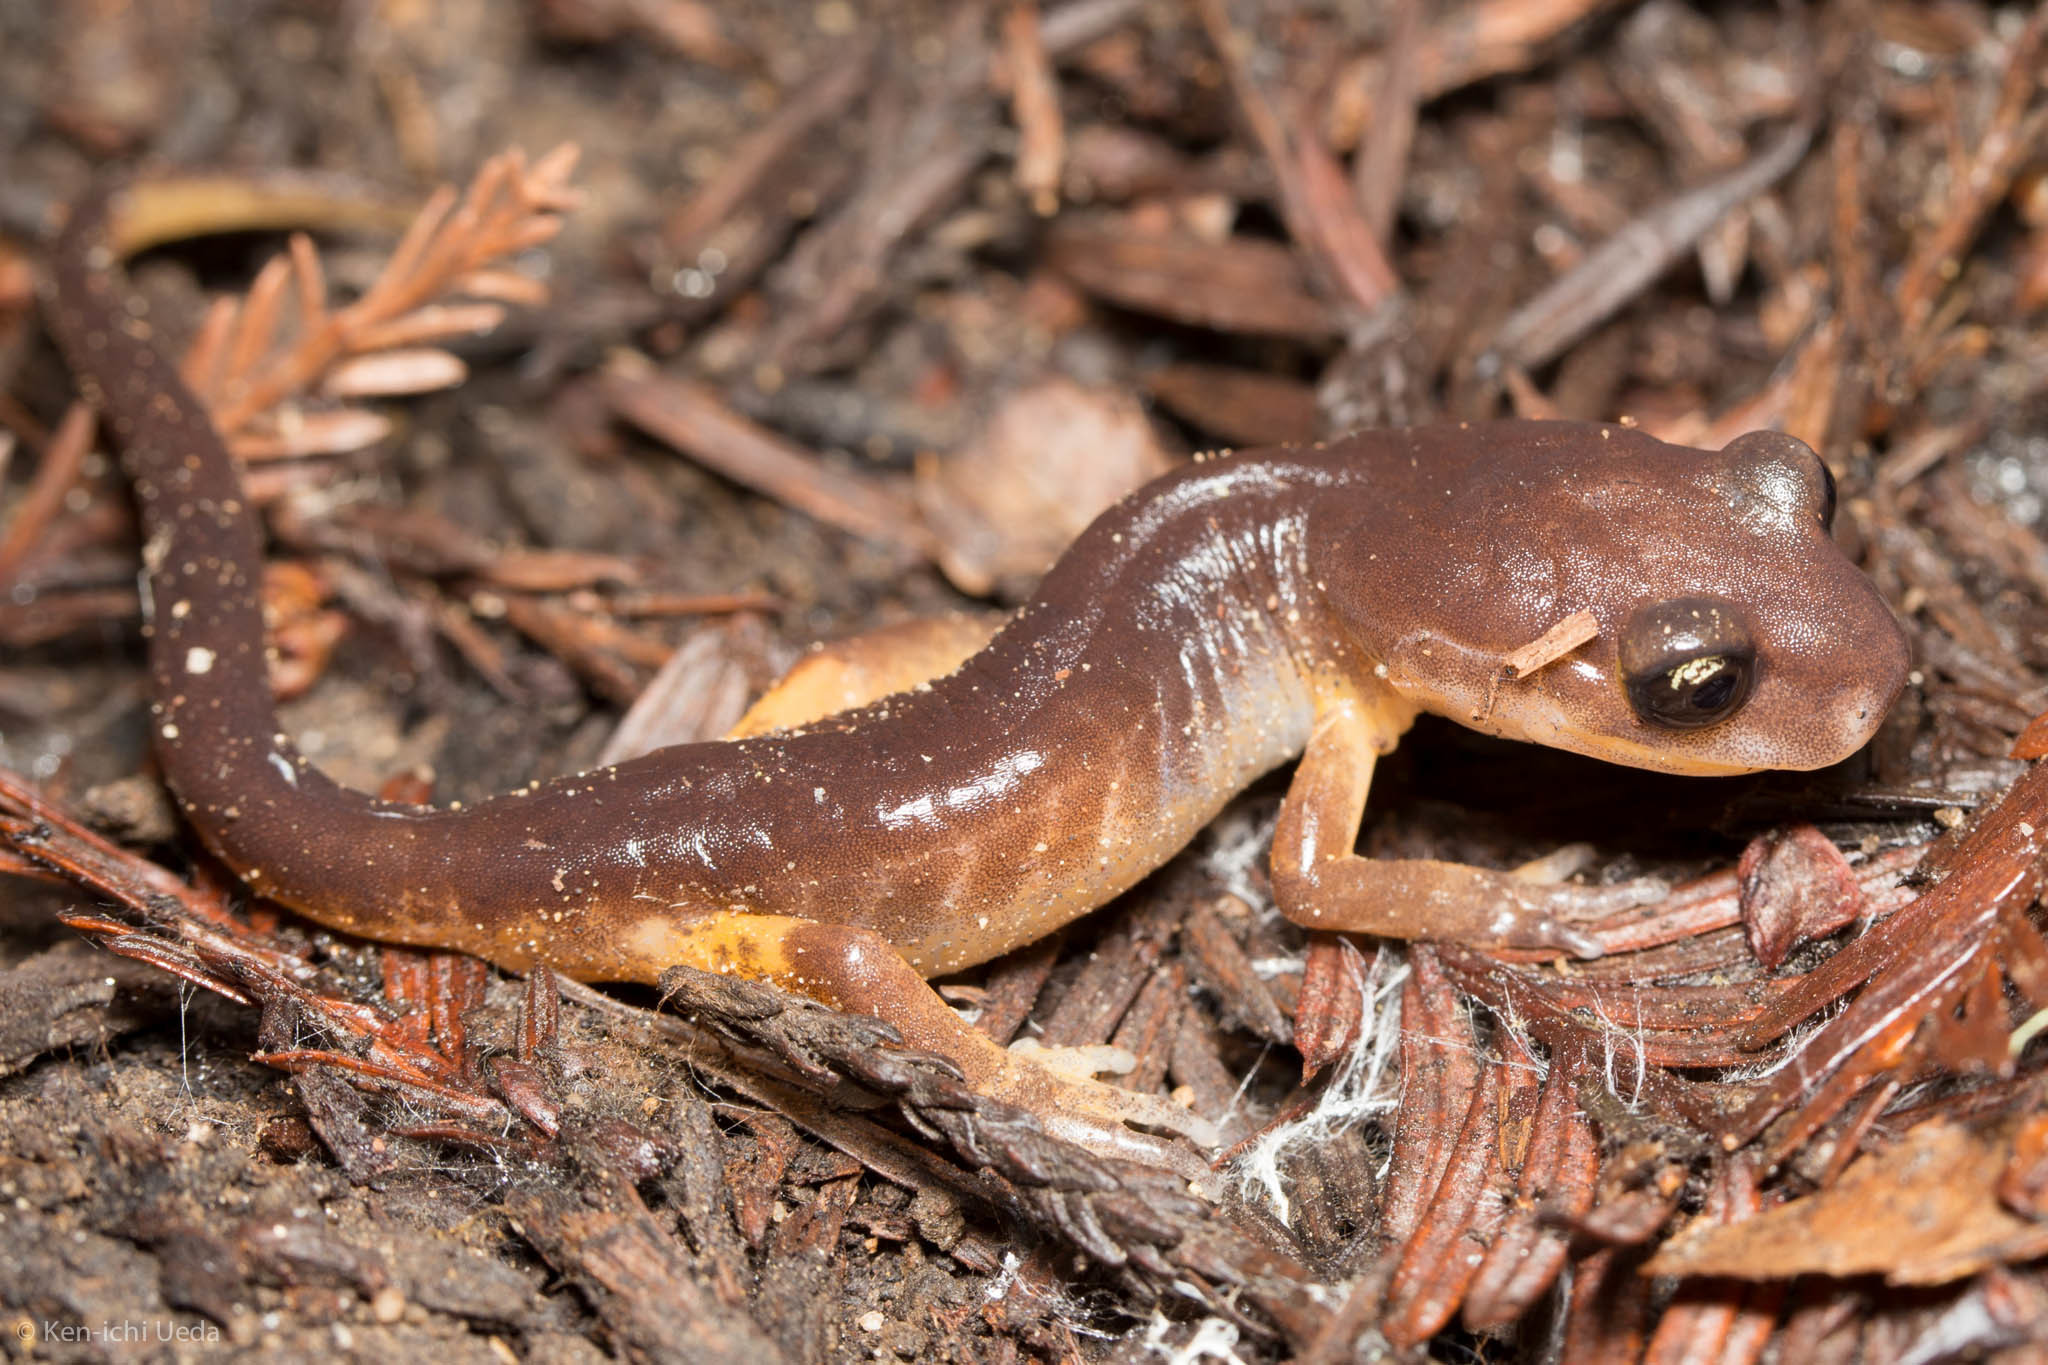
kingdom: Animalia
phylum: Chordata
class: Amphibia
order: Caudata
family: Plethodontidae
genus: Ensatina
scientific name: Ensatina eschscholtzii
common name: Ensatina
